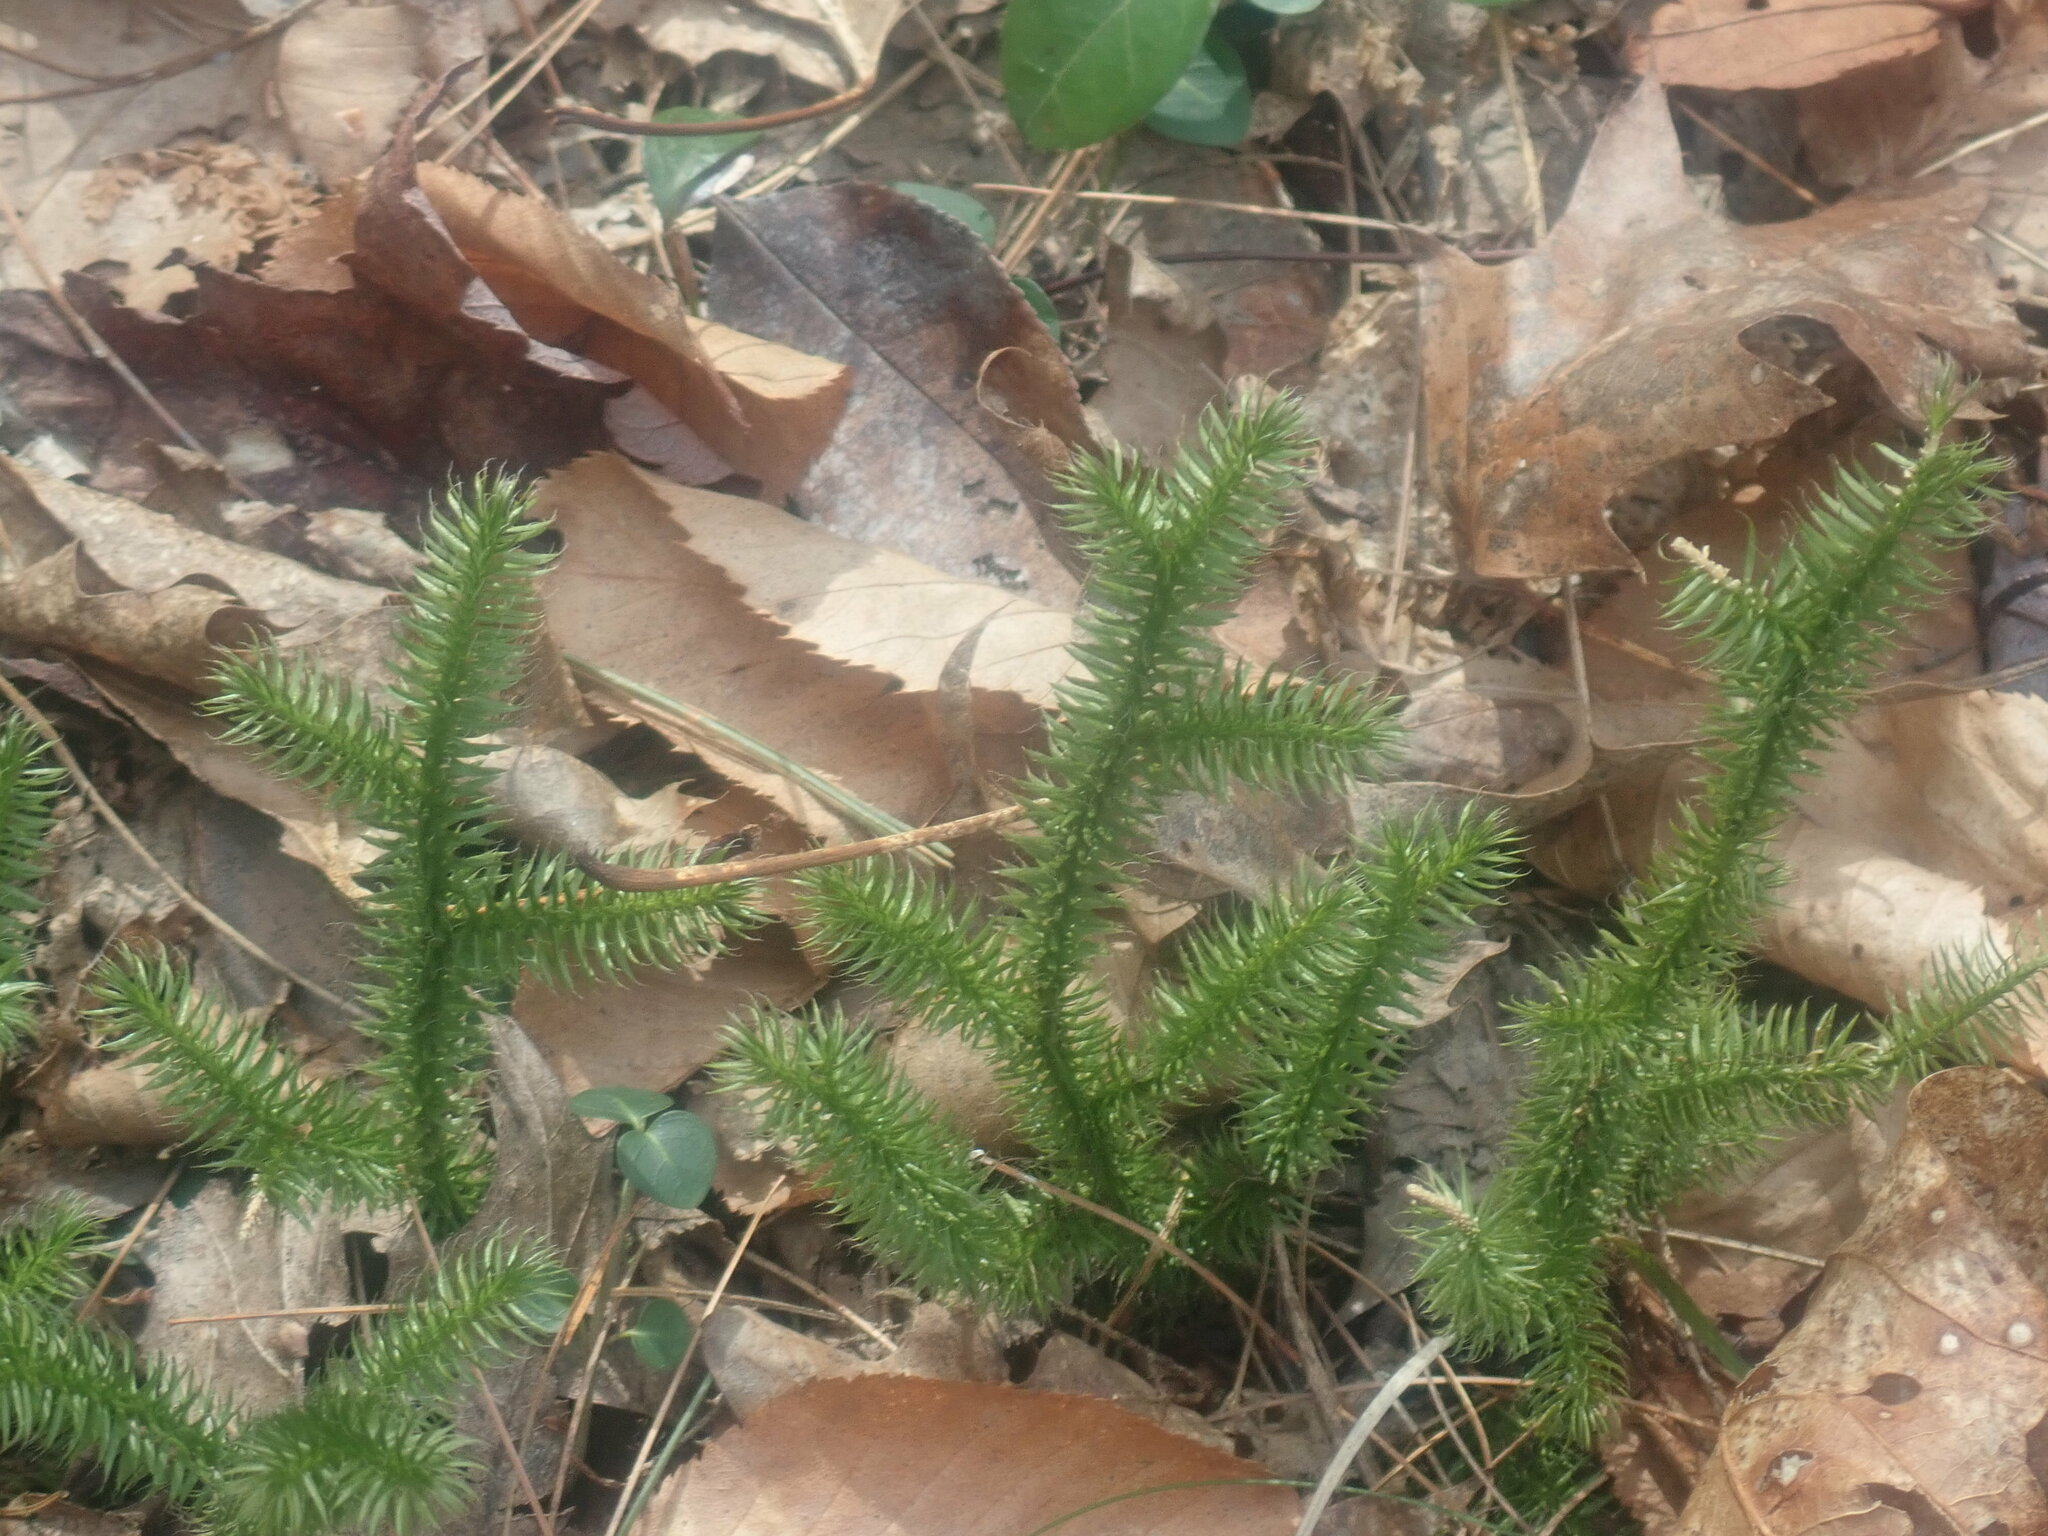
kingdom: Plantae
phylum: Tracheophyta
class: Lycopodiopsida
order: Lycopodiales
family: Lycopodiaceae
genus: Lycopodium
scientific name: Lycopodium clavatum
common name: Stag's-horn clubmoss
